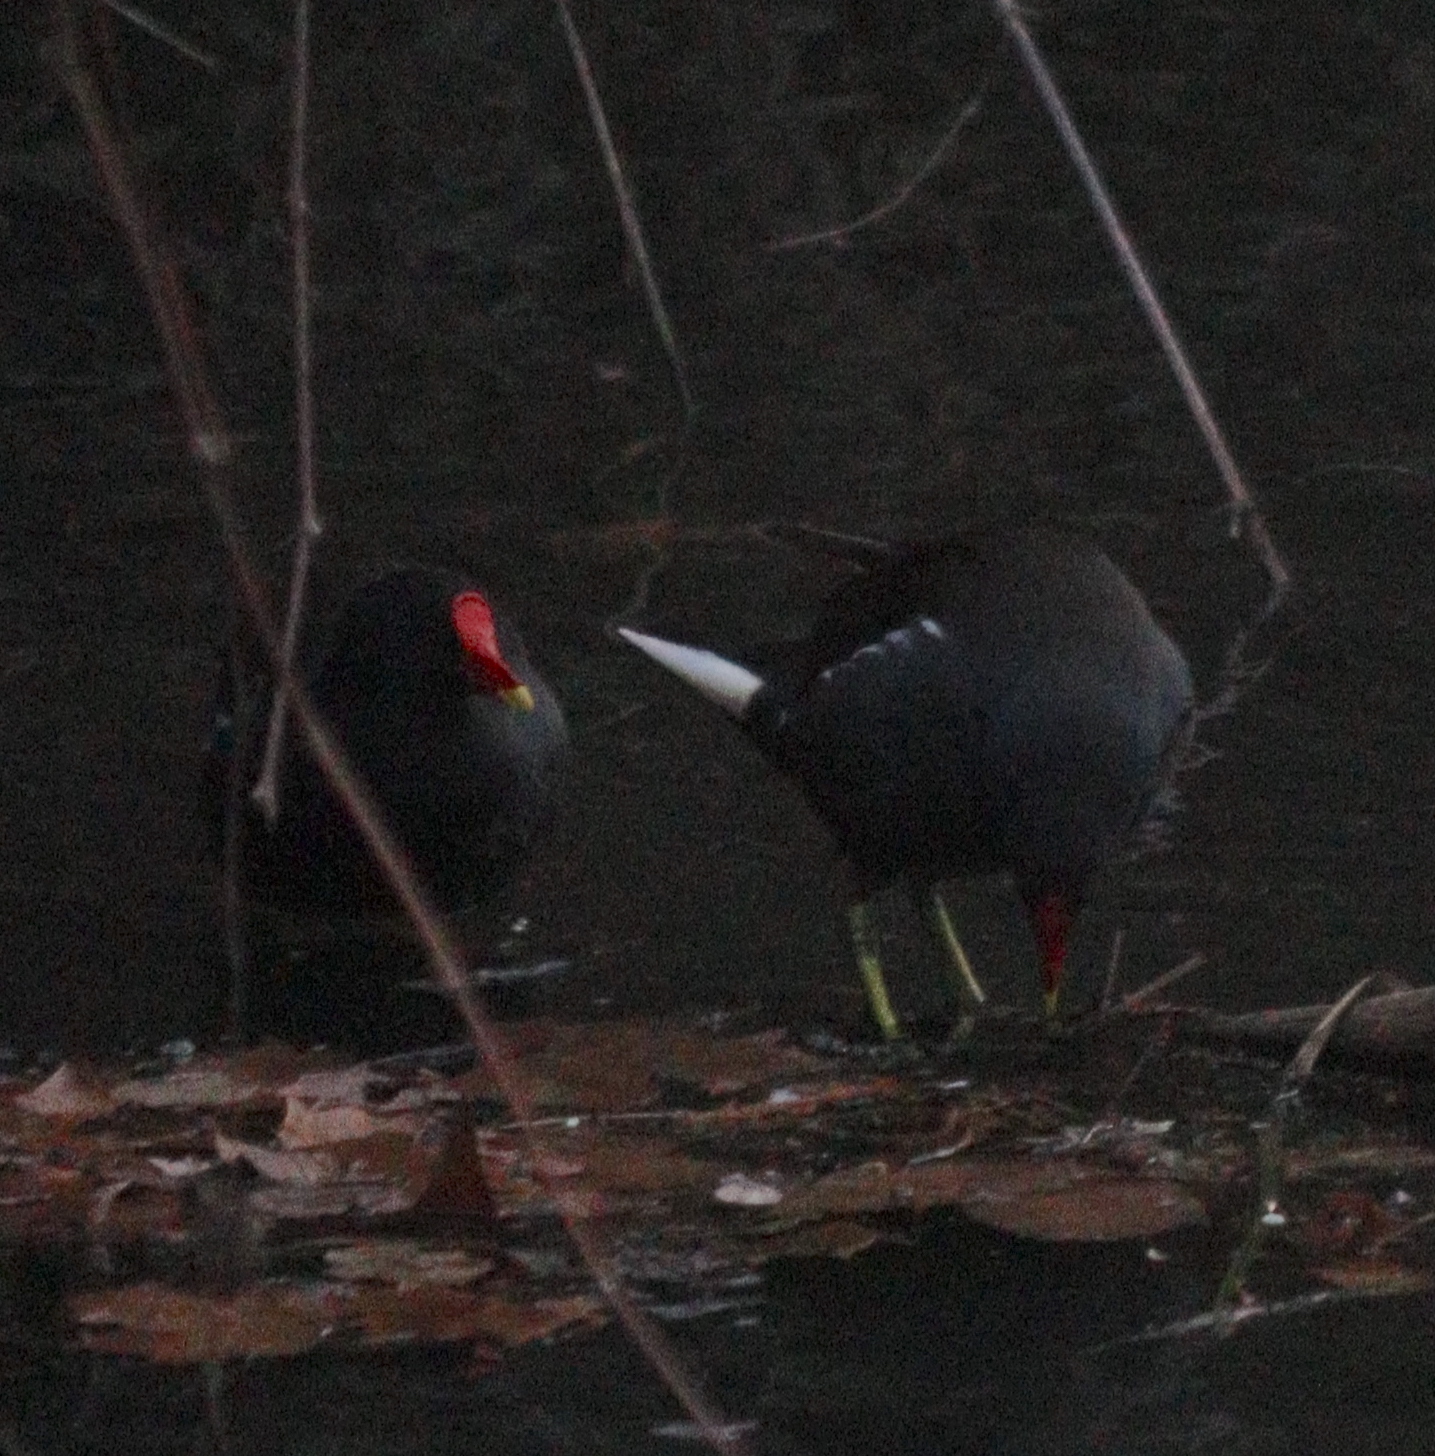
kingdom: Animalia
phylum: Chordata
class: Aves
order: Gruiformes
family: Rallidae
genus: Gallinula
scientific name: Gallinula chloropus
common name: Common moorhen
